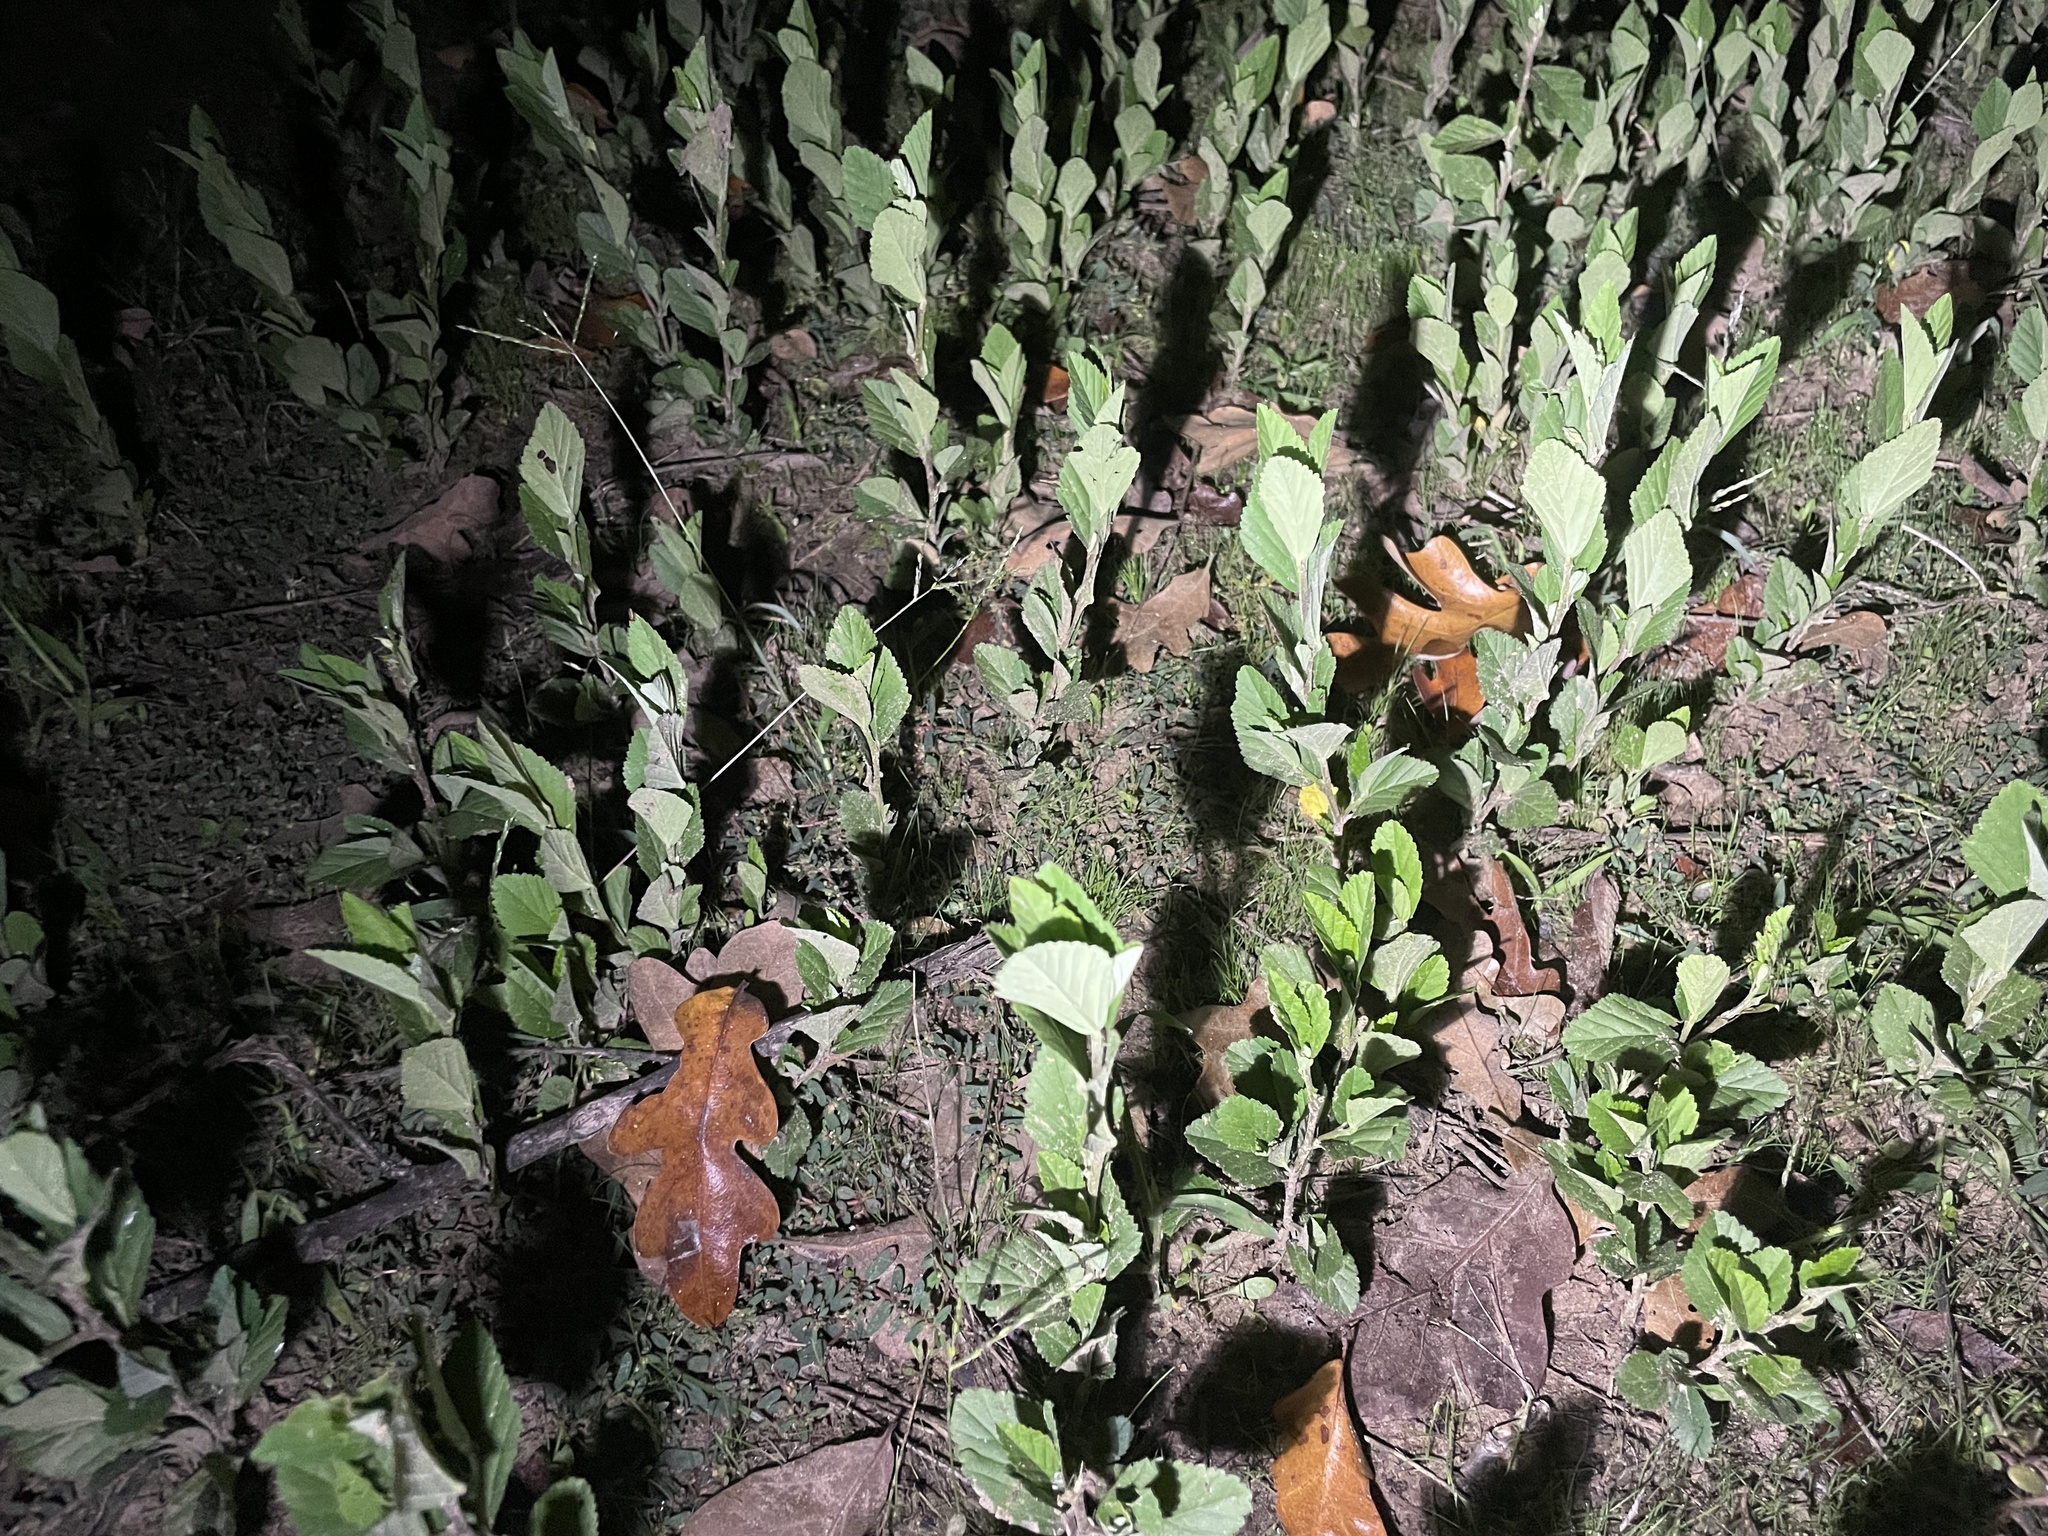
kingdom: Plantae
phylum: Tracheophyta
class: Magnoliopsida
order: Malvales
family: Malvaceae
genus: Sida
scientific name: Sida rhombifolia
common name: Queensland-hemp
